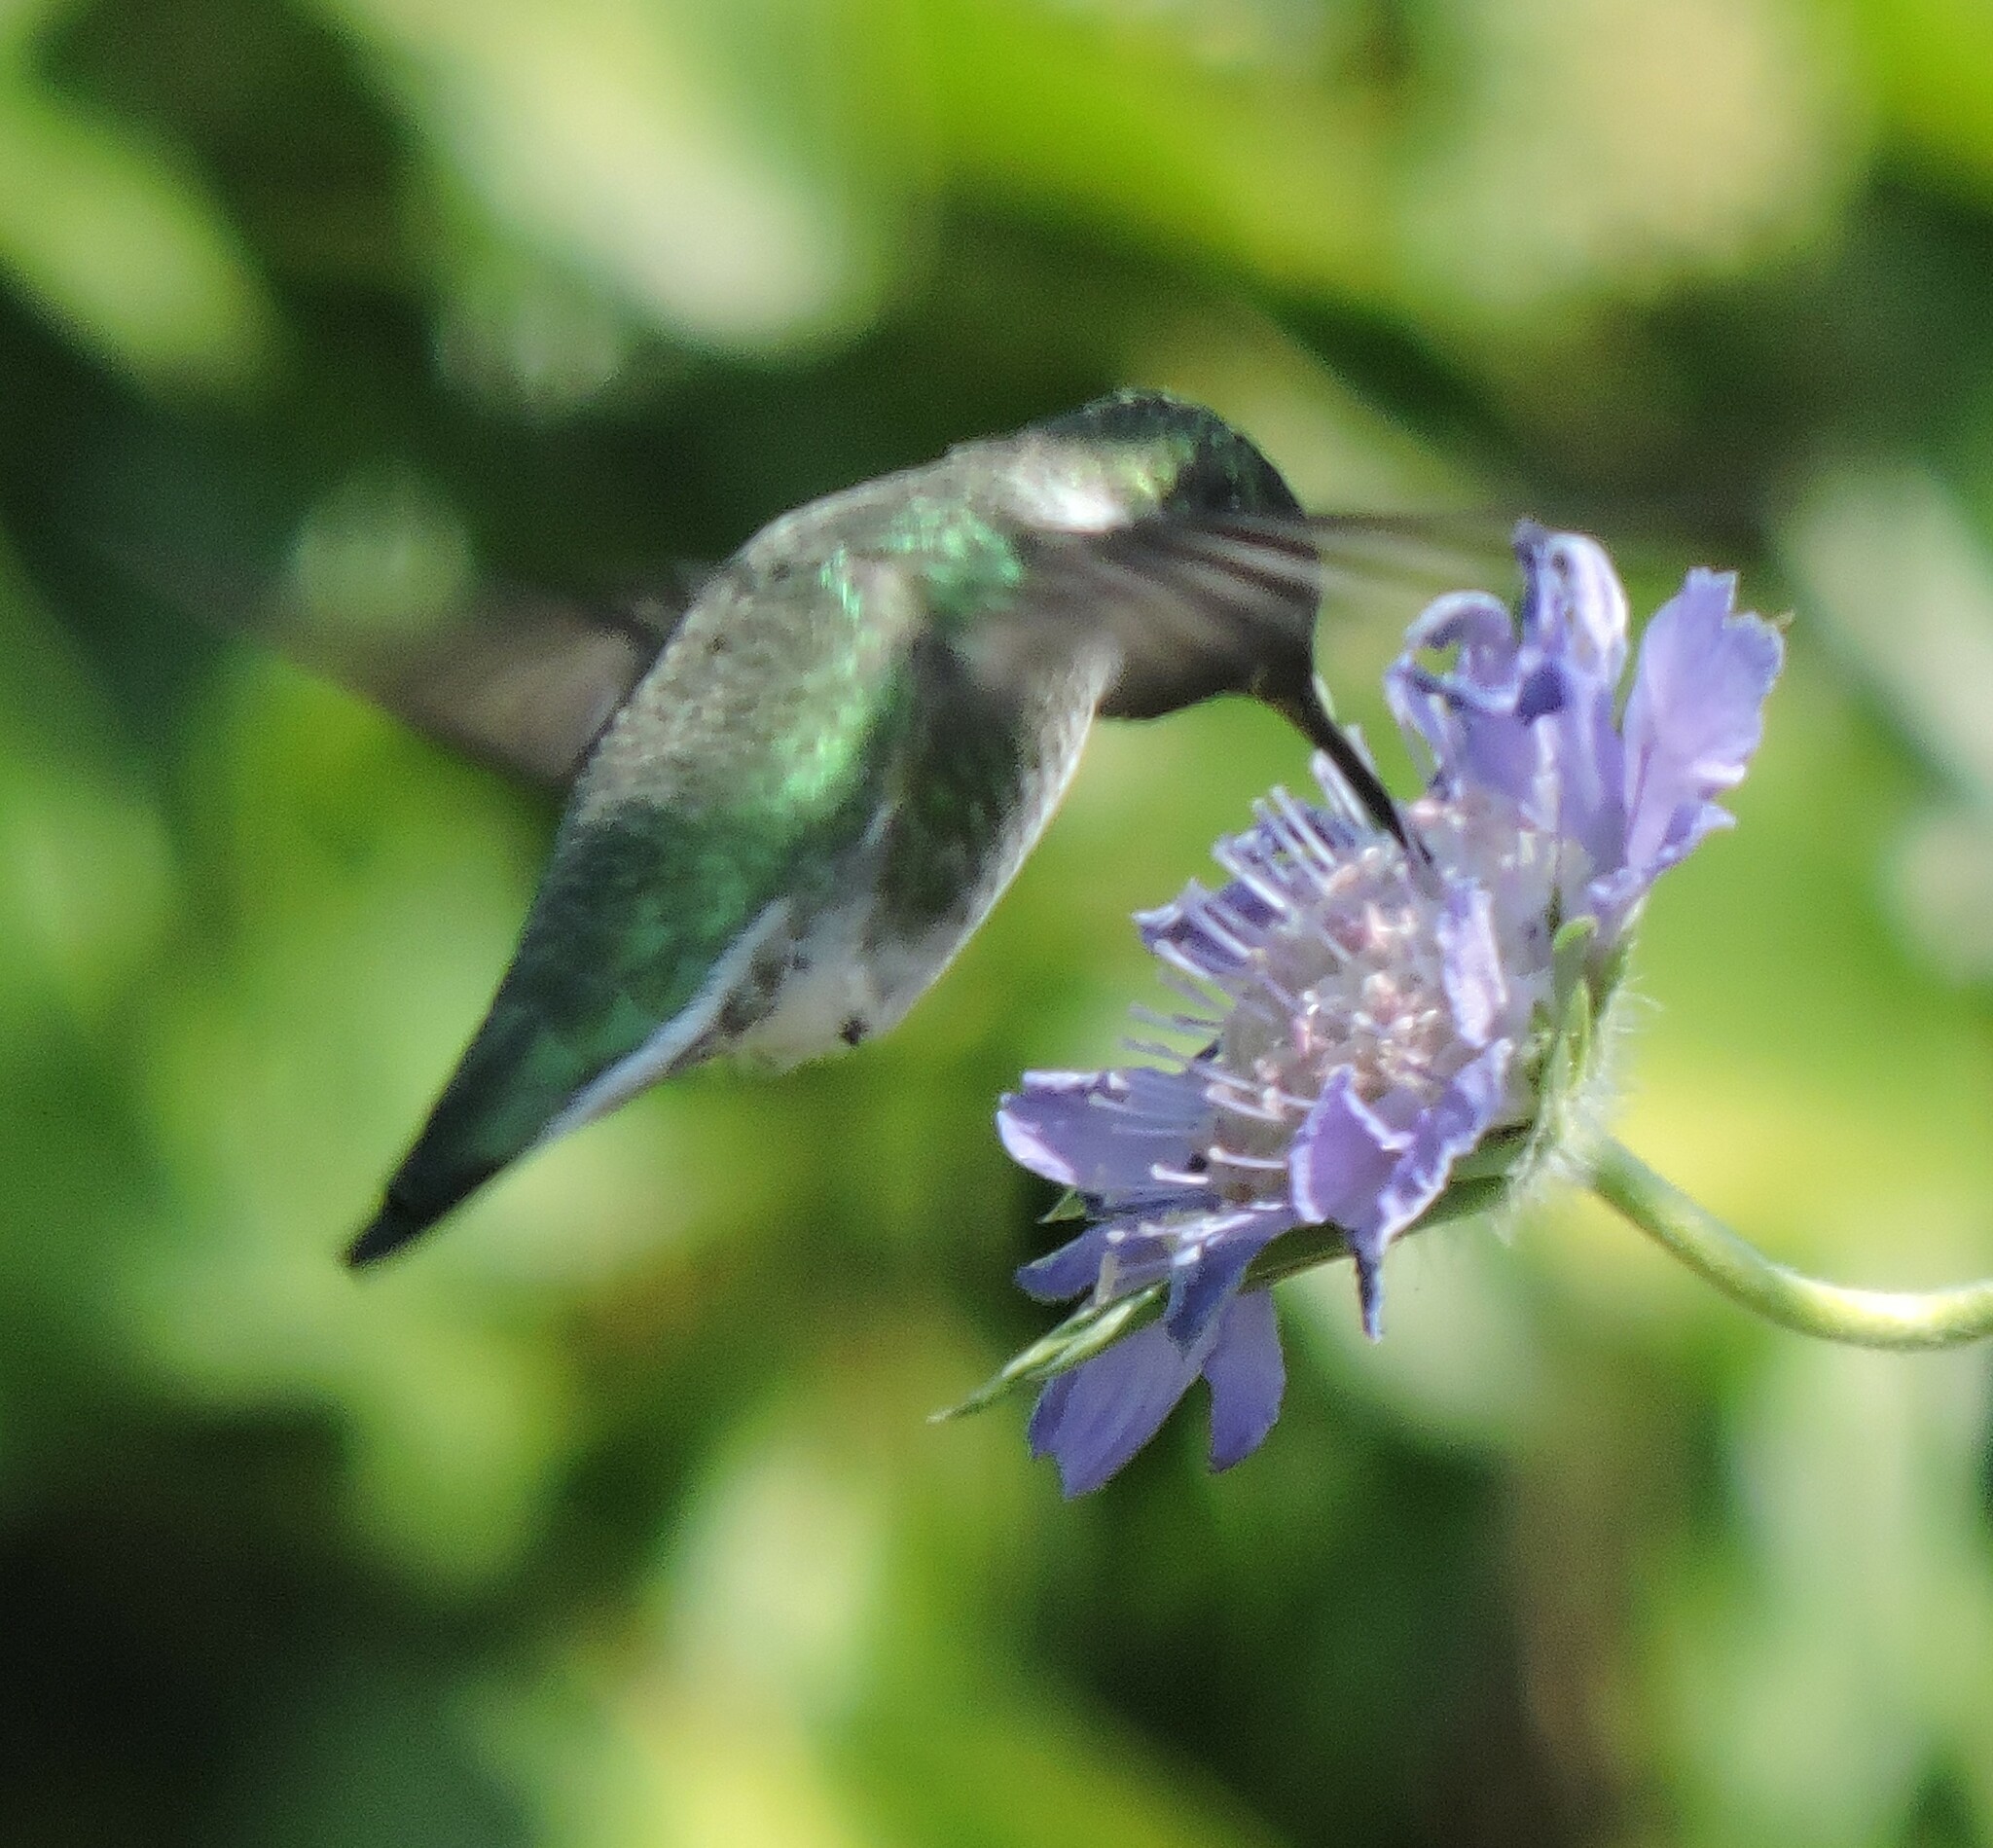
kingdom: Animalia
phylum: Chordata
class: Aves
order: Apodiformes
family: Trochilidae
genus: Calypte
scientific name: Calypte anna
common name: Anna's hummingbird
